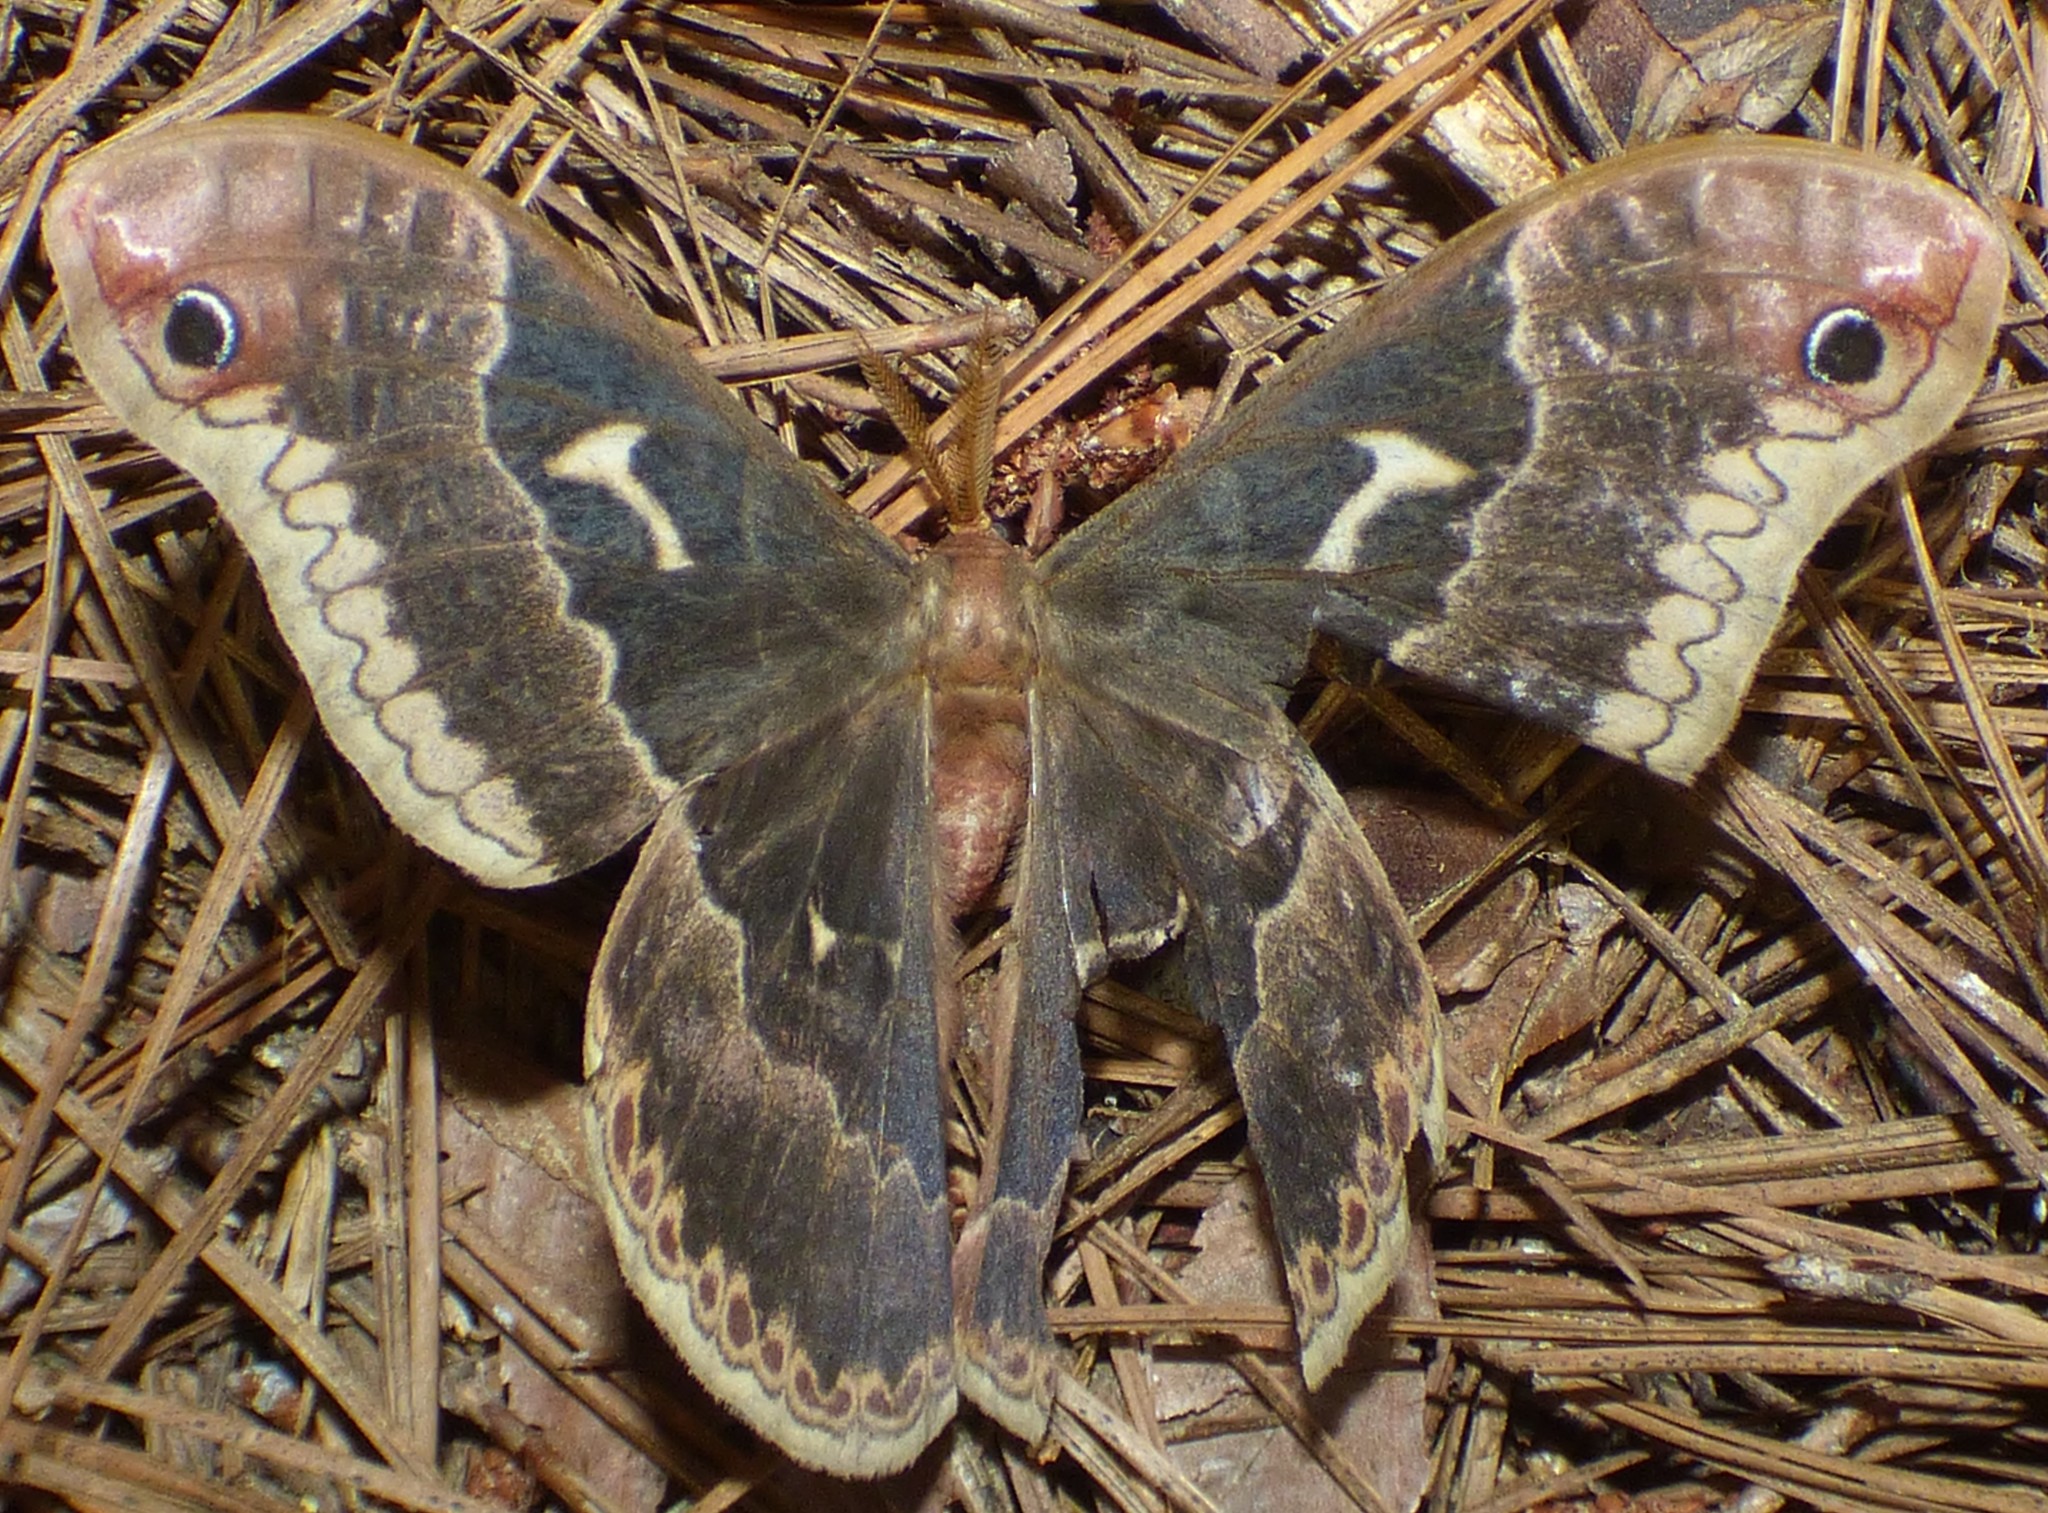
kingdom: Animalia
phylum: Arthropoda
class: Insecta
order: Lepidoptera
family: Saturniidae
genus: Callosamia
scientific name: Callosamia angulifera
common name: Tulip tree silkmoth
